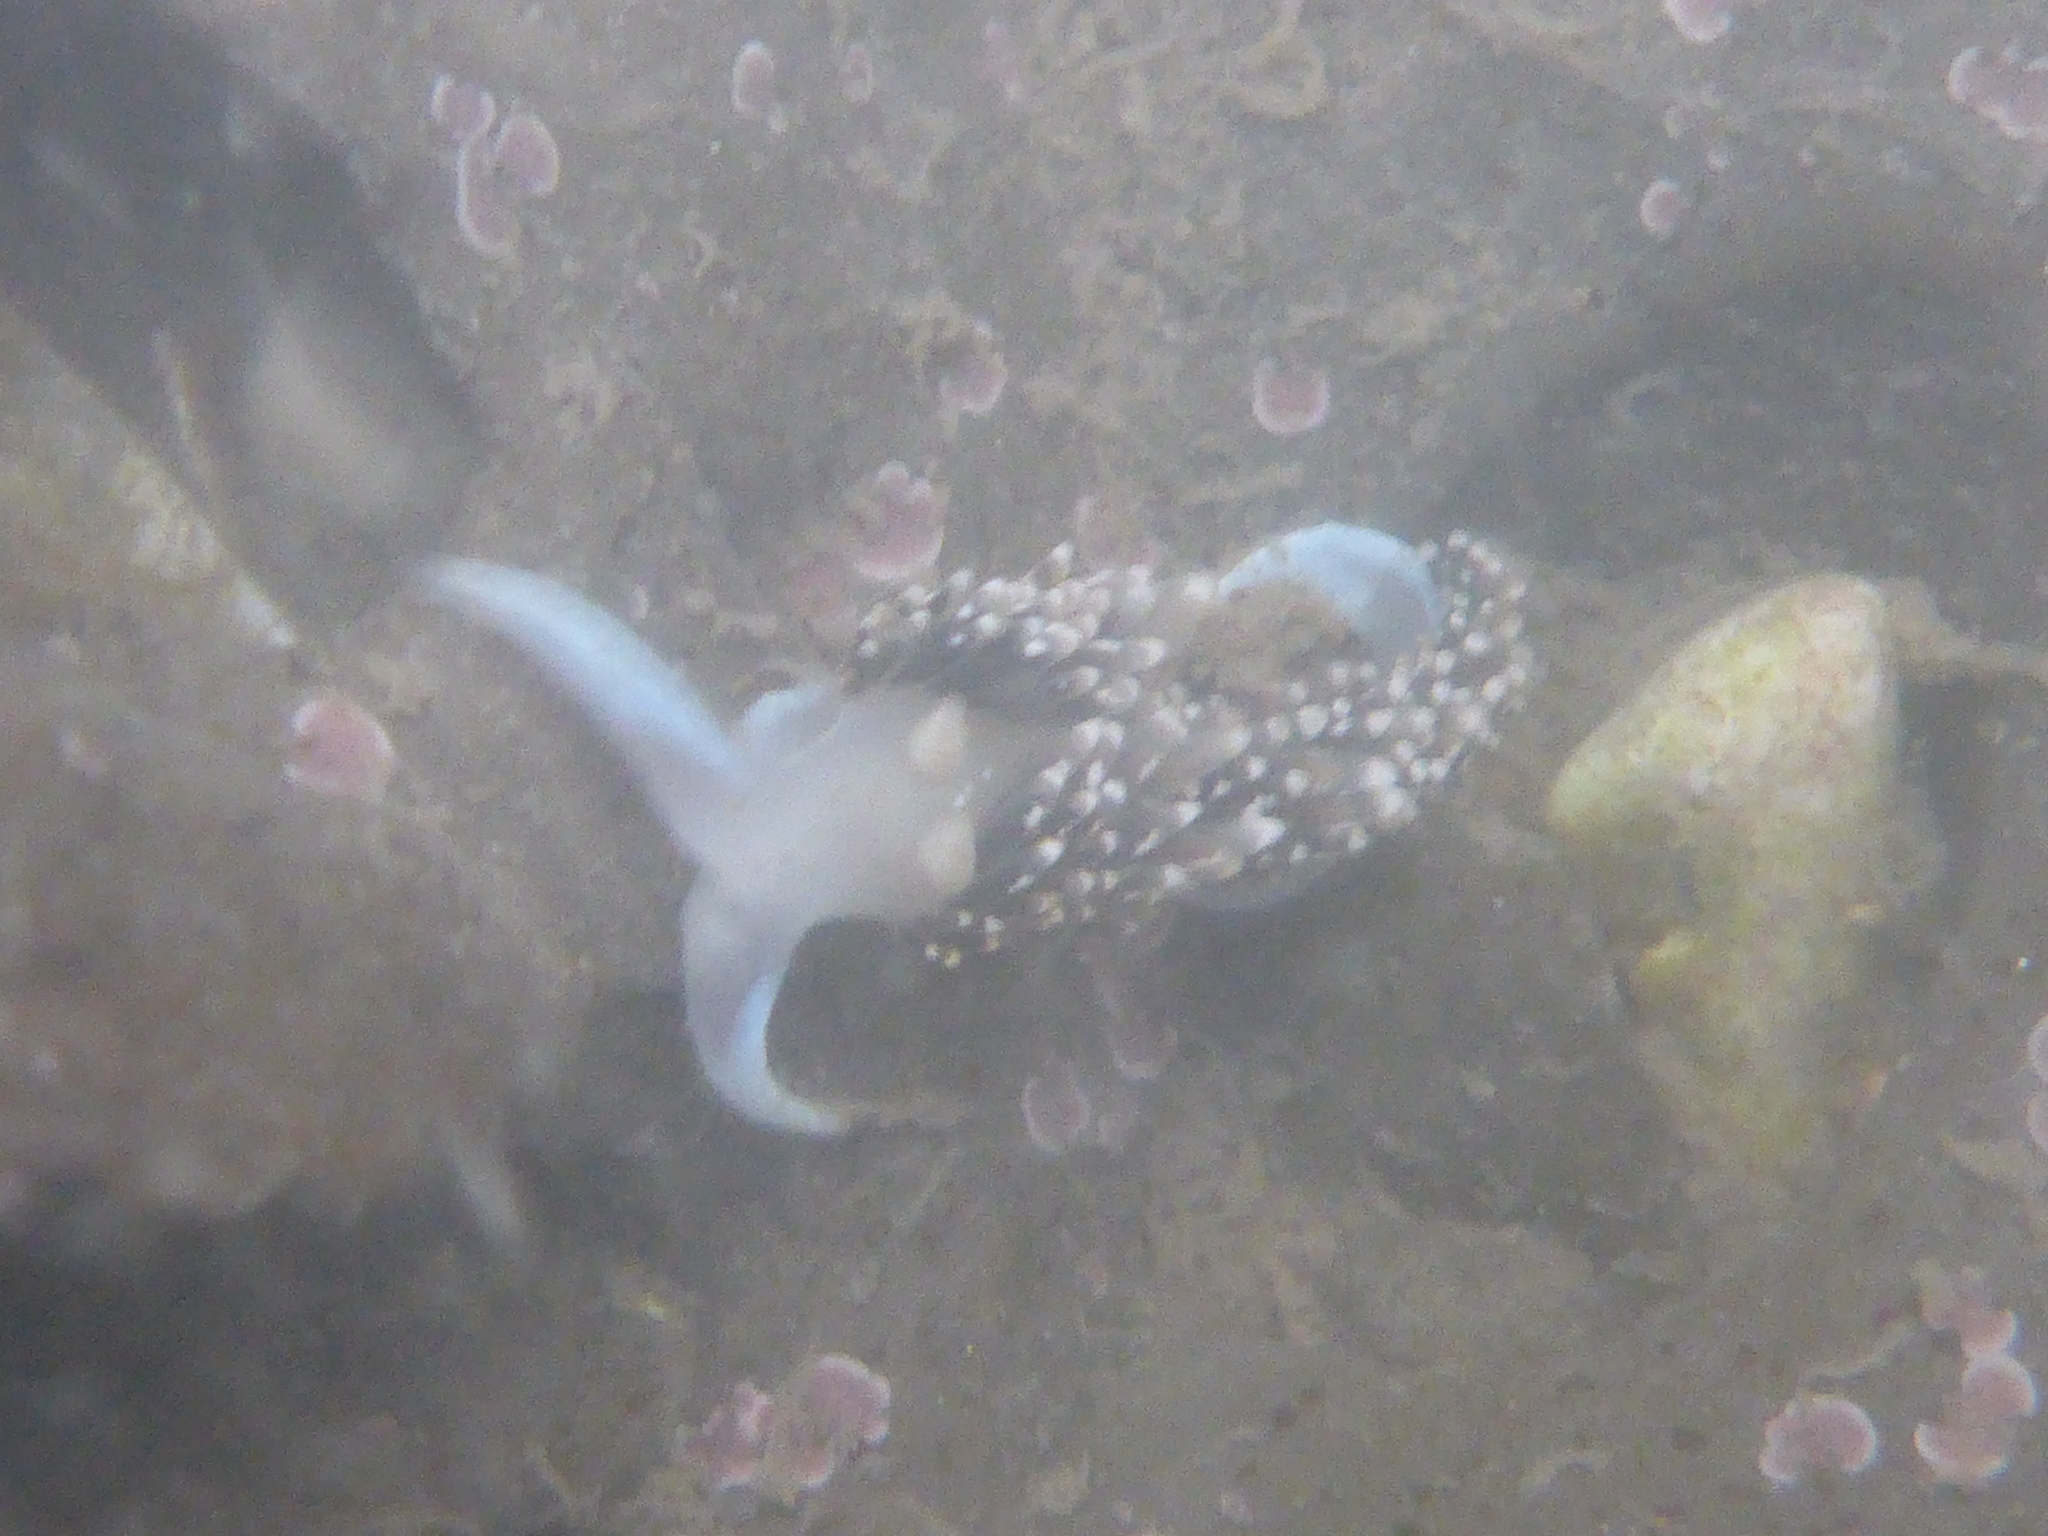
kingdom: Animalia
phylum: Mollusca
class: Gastropoda
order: Nudibranchia
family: Facelinidae
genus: Phidiana
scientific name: Phidiana hiltoni
